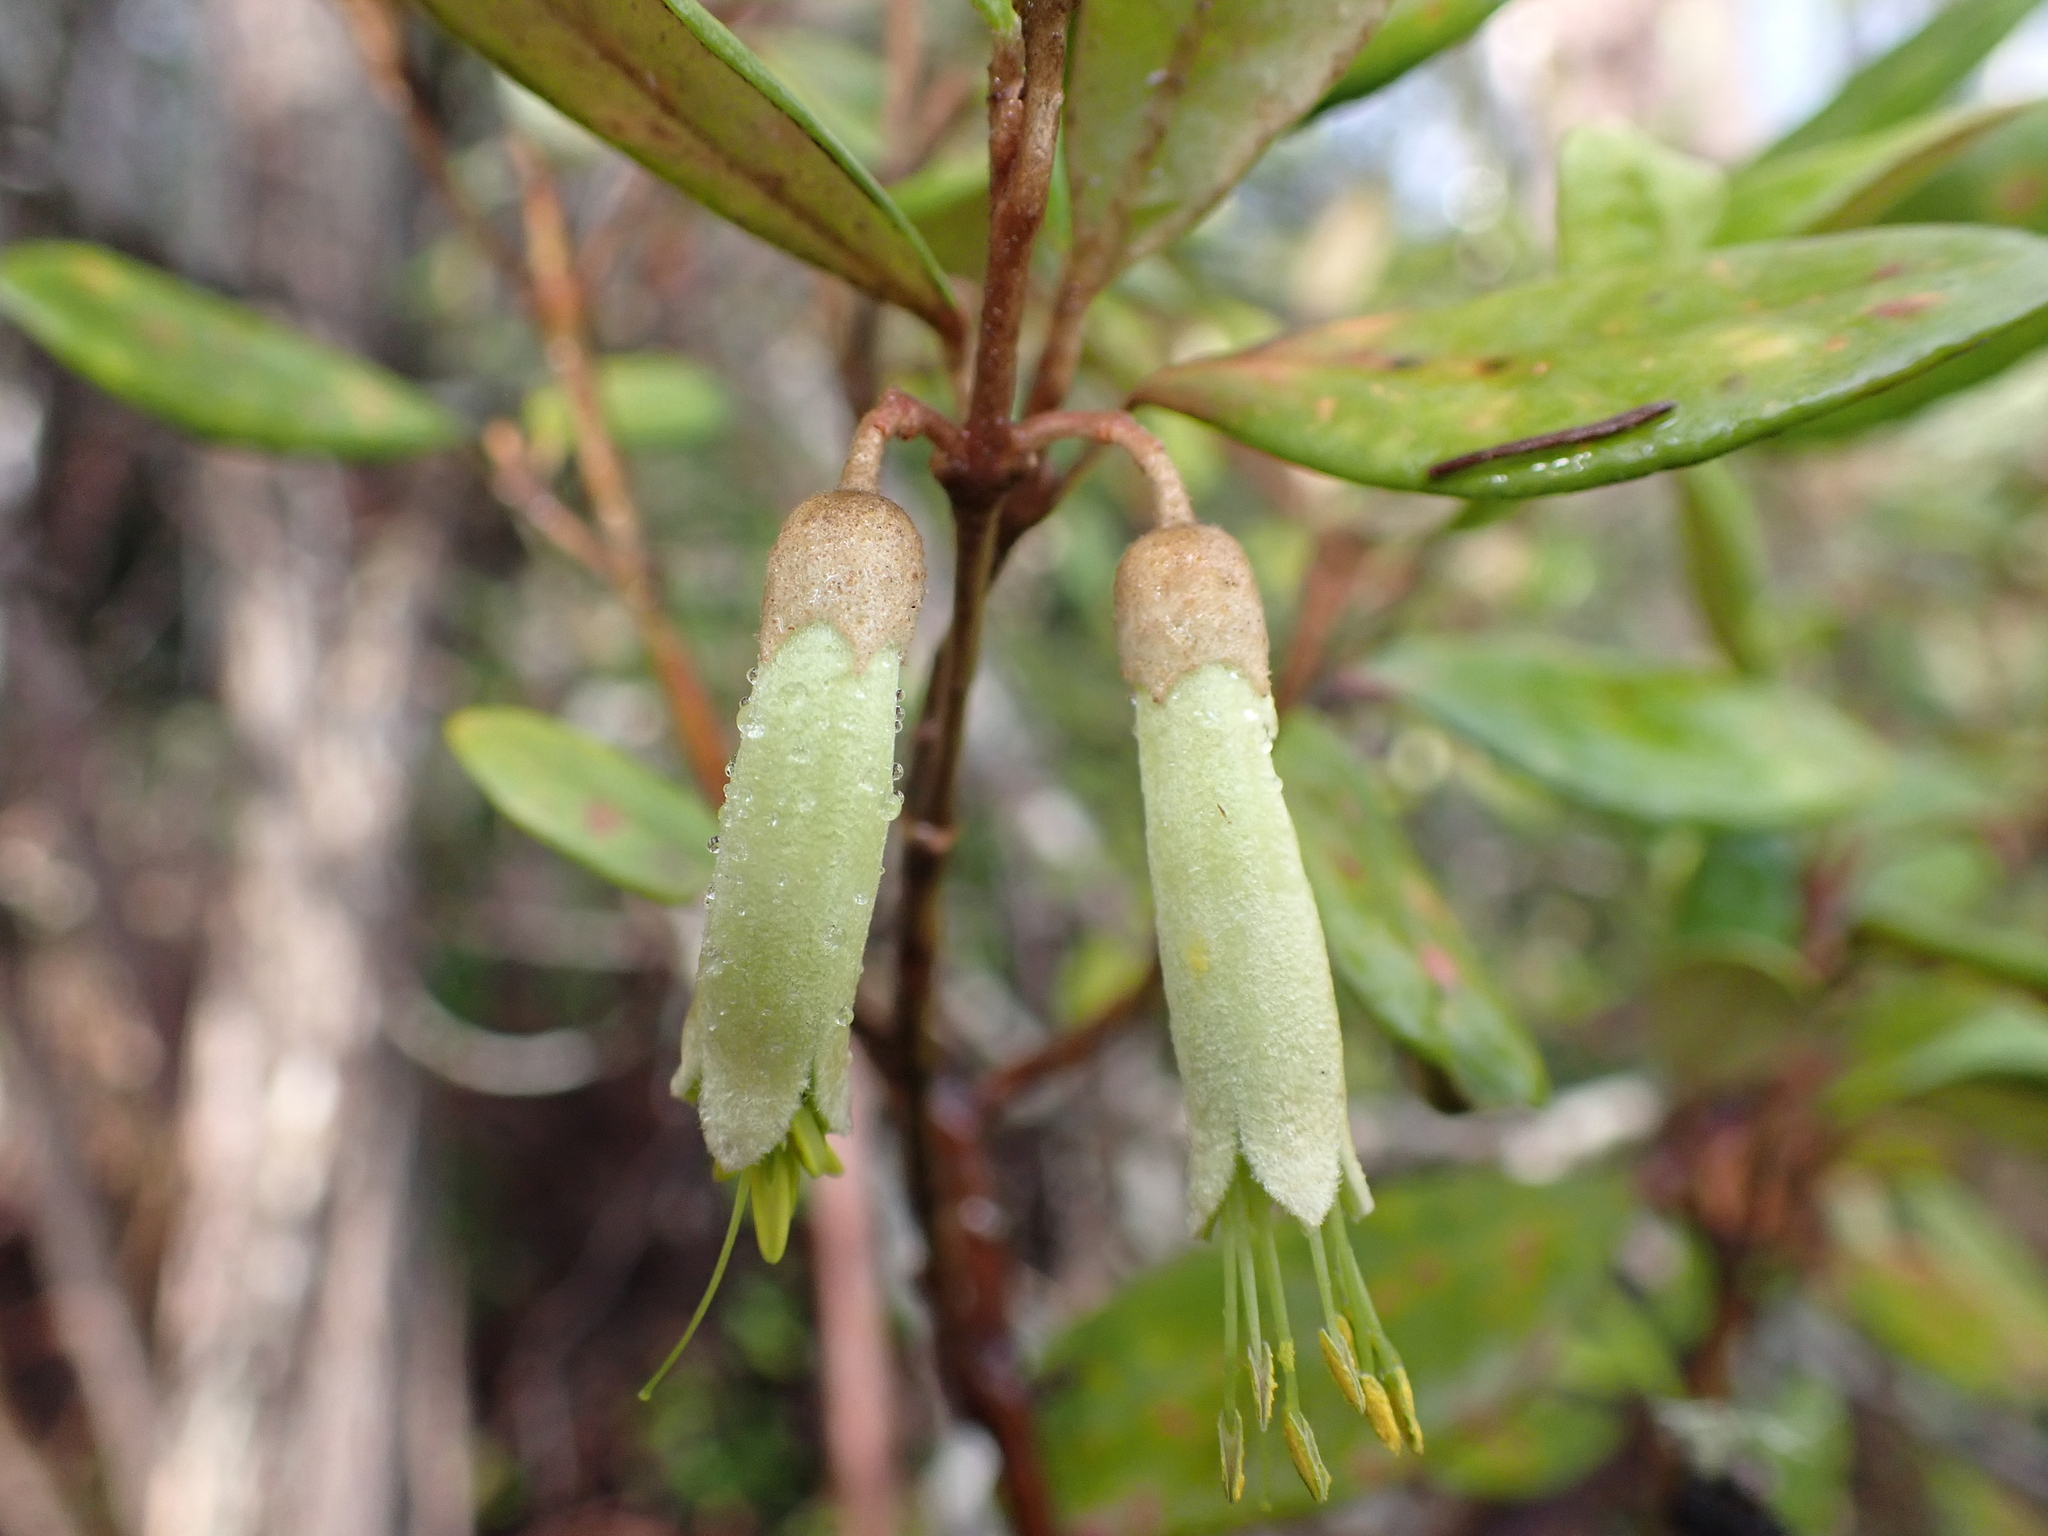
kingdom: Plantae
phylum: Tracheophyta
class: Magnoliopsida
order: Sapindales
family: Rutaceae
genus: Correa
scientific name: Correa lawrenceana
